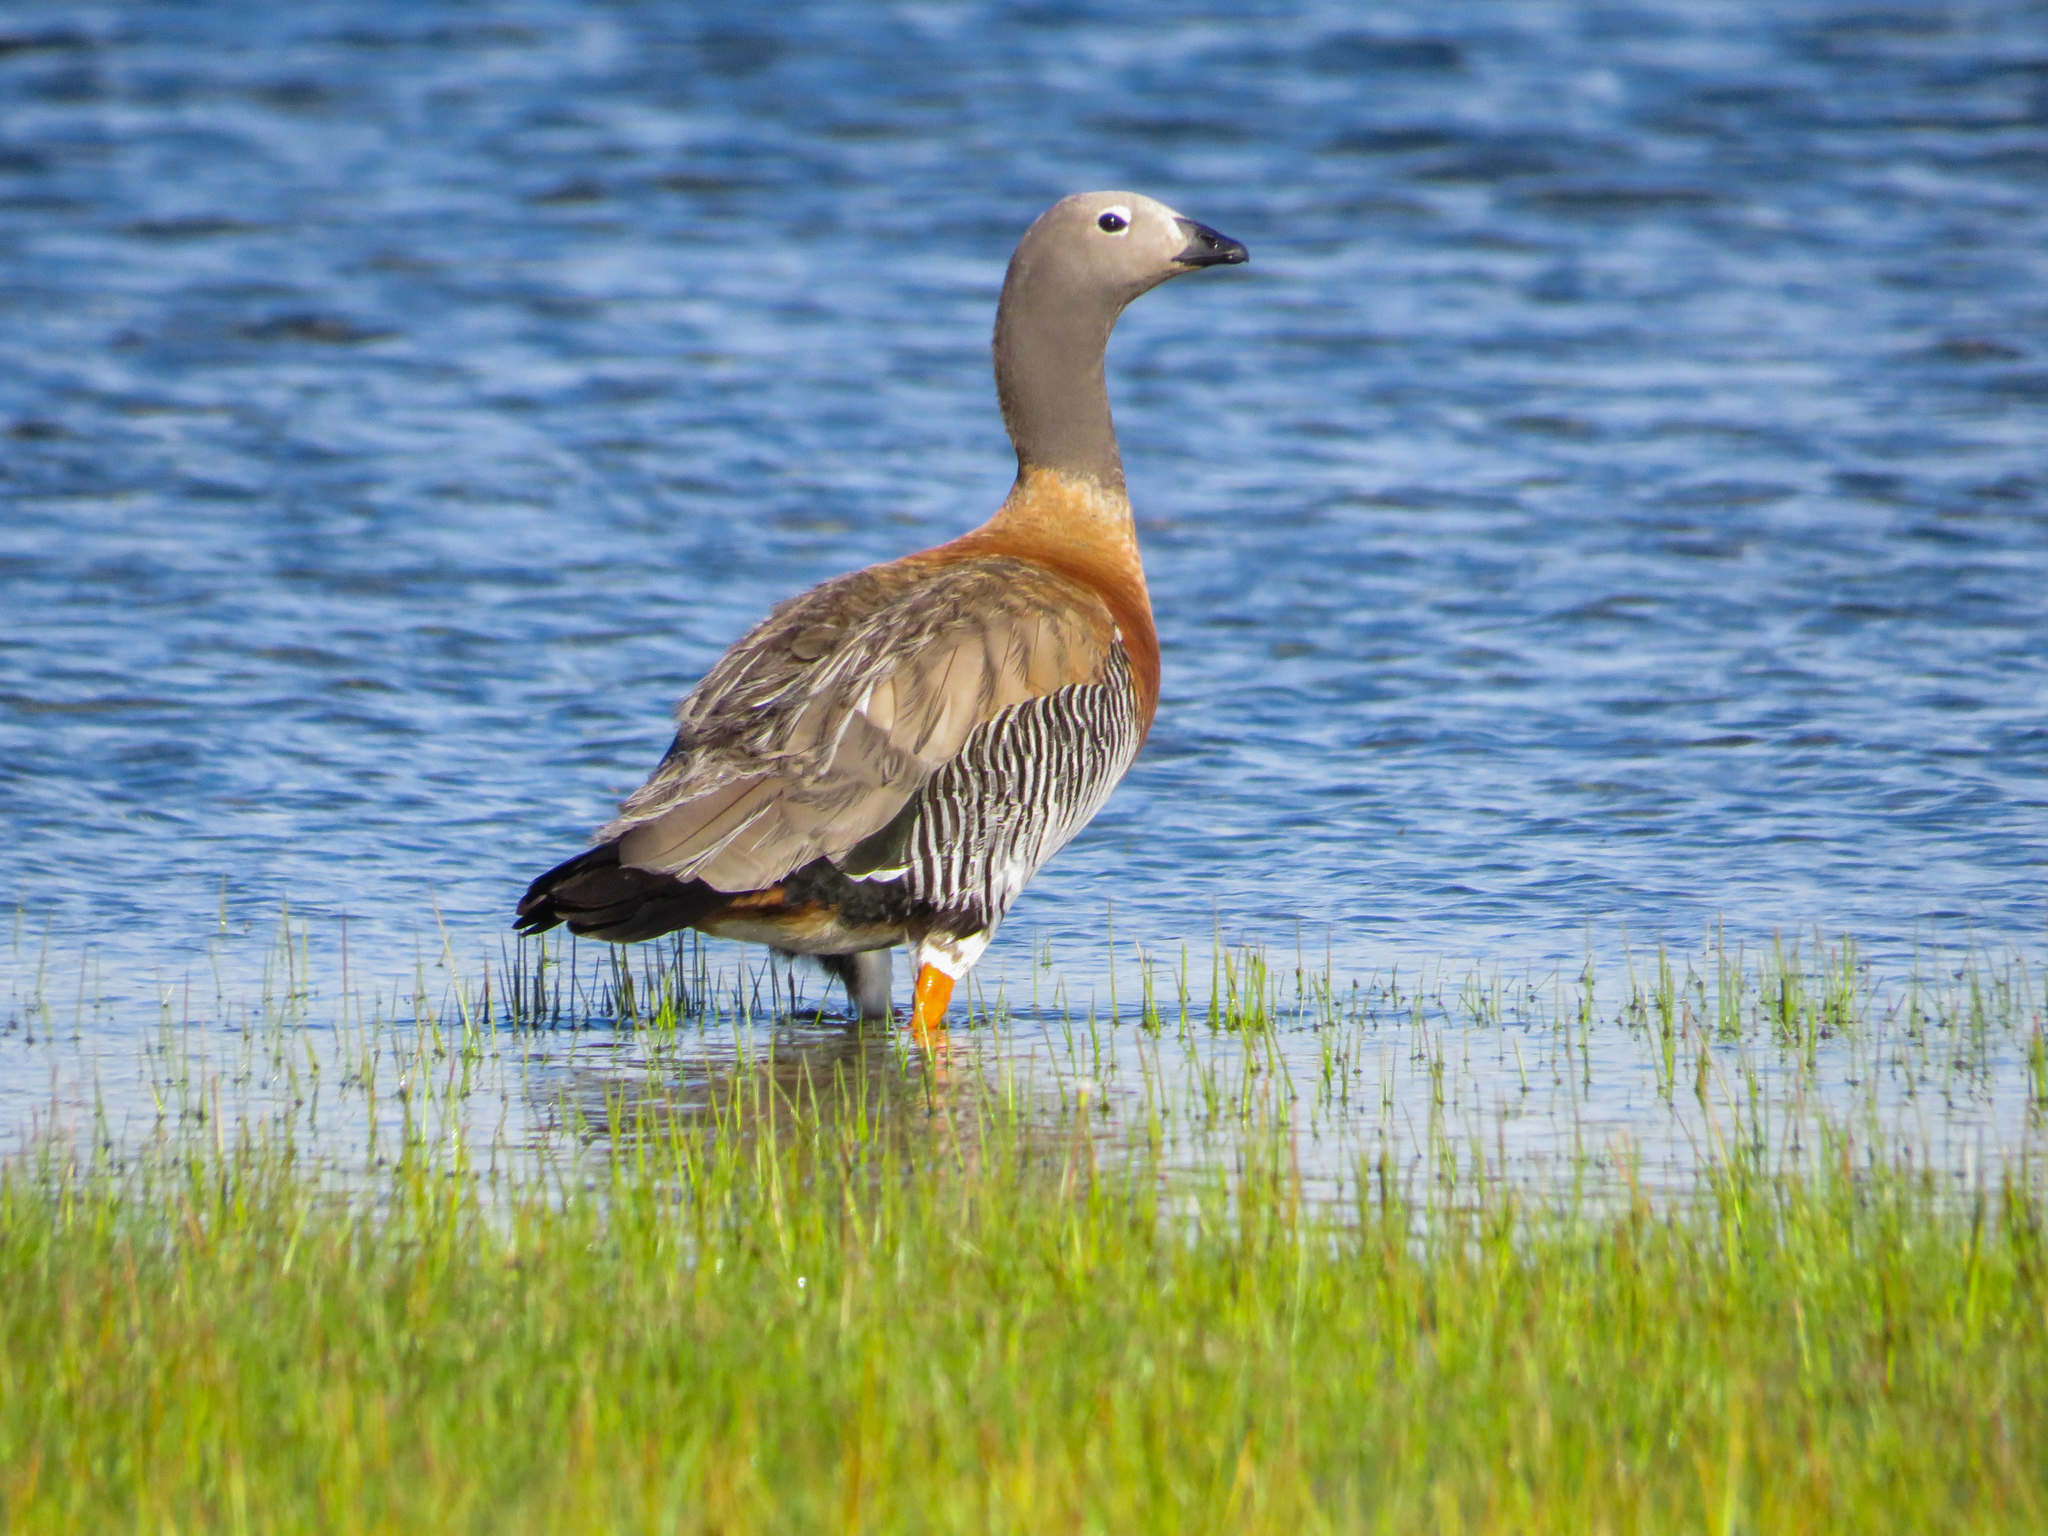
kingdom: Animalia
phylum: Chordata
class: Aves
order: Anseriformes
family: Anatidae
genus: Chloephaga
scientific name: Chloephaga poliocephala
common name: Ashy-headed goose
